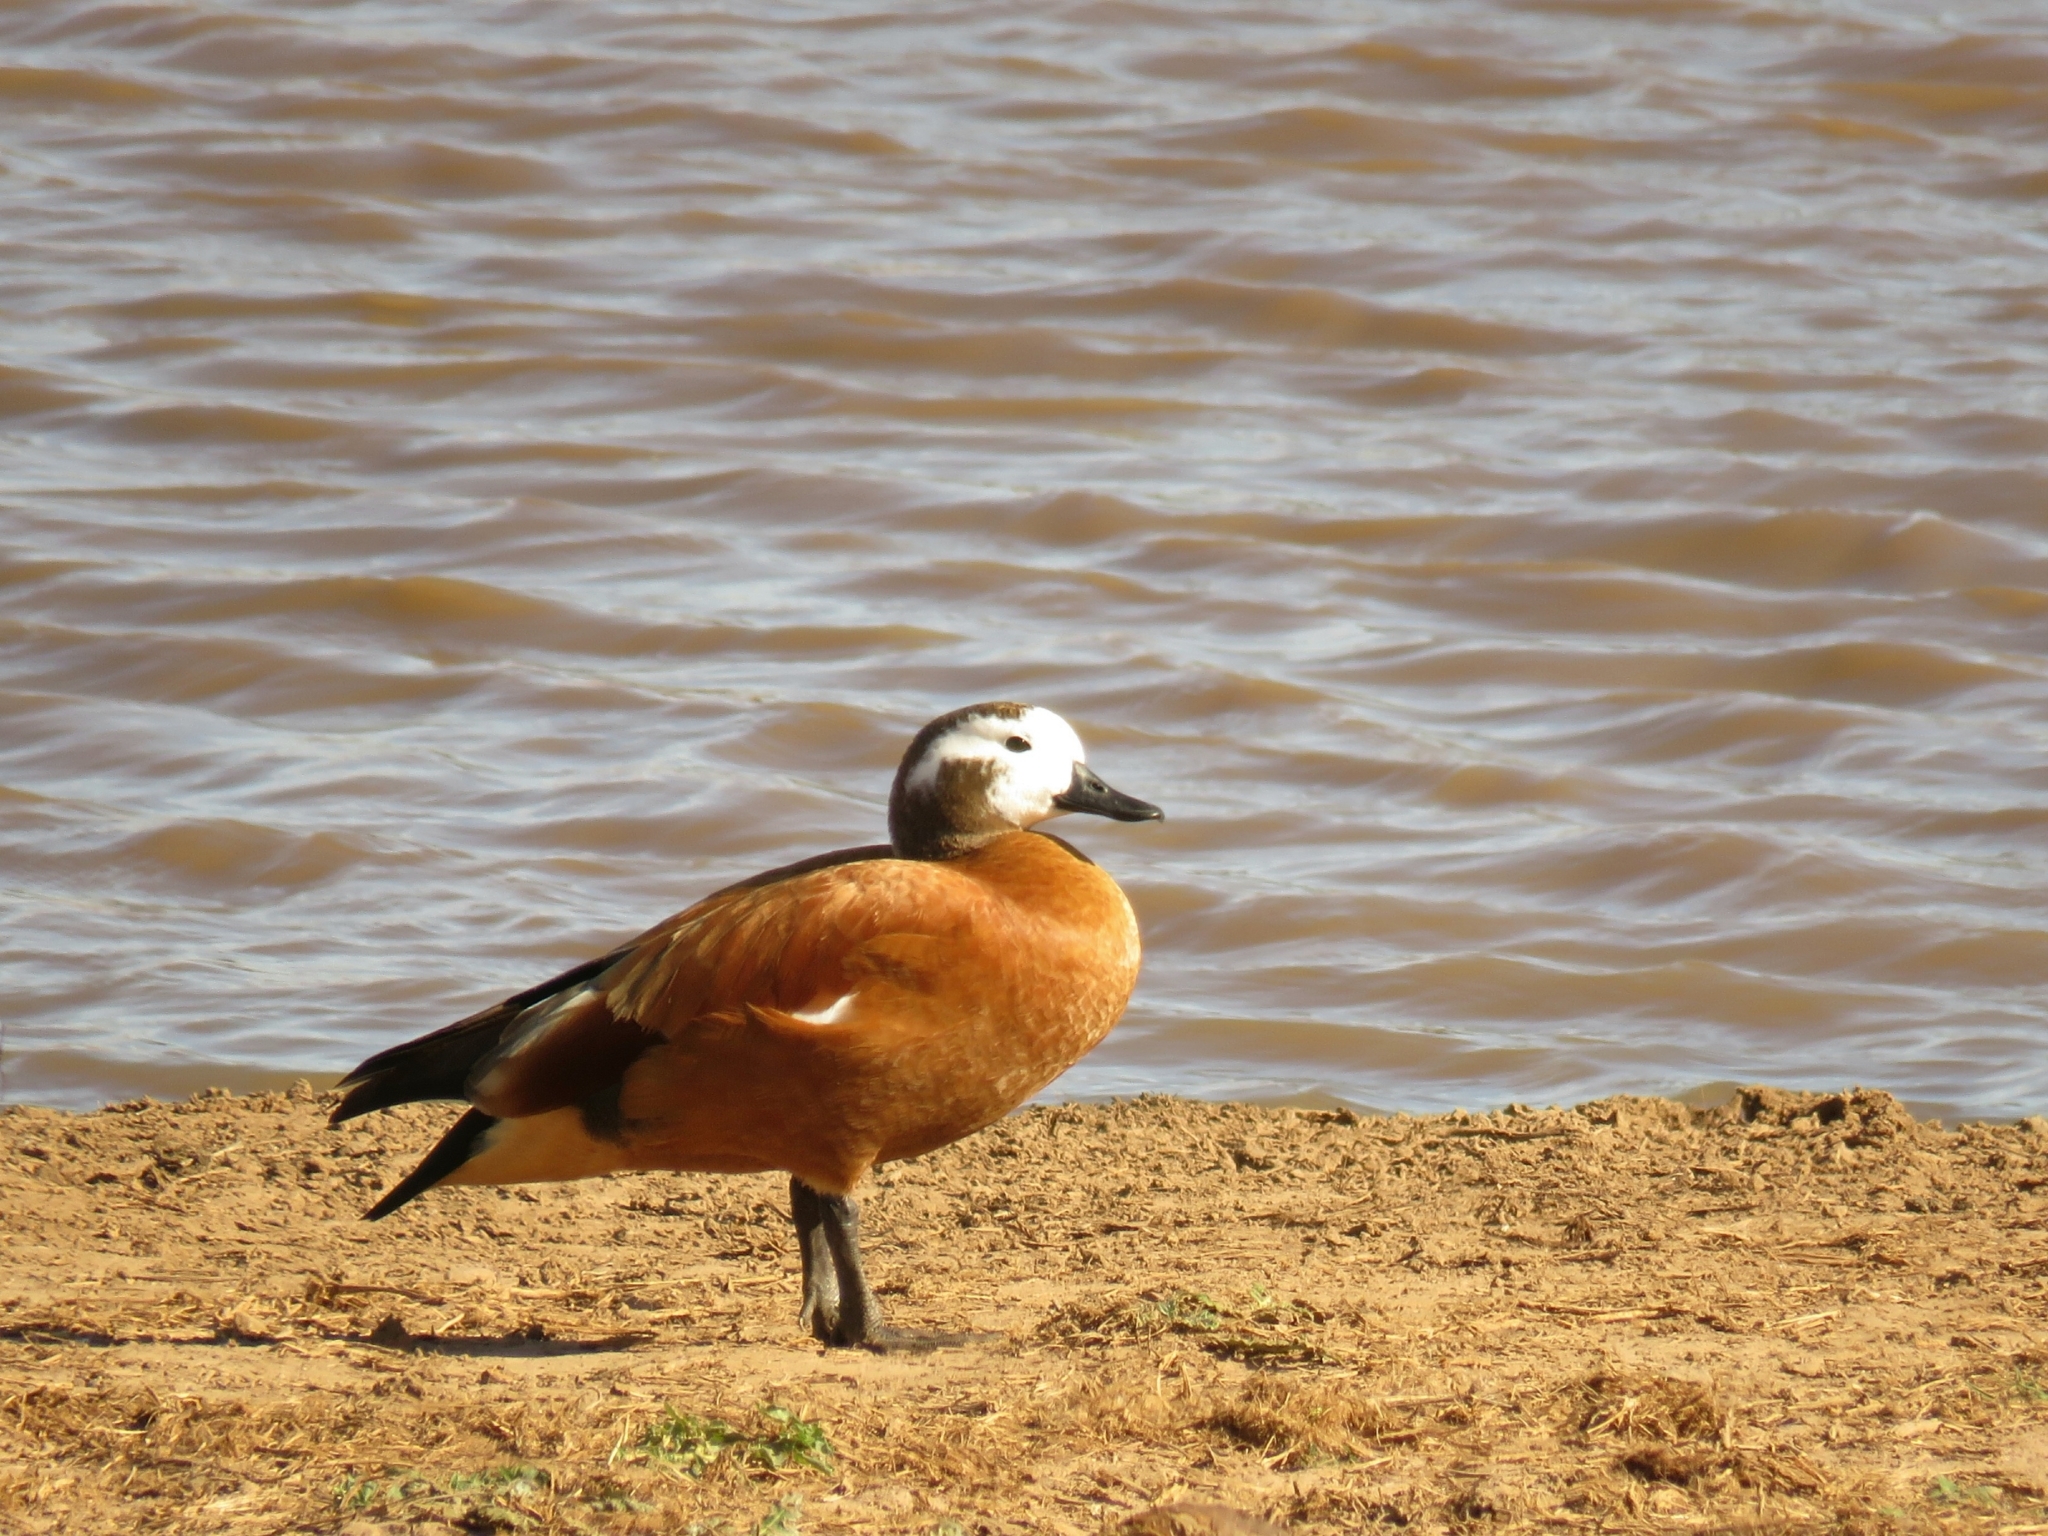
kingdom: Animalia
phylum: Chordata
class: Aves
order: Anseriformes
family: Anatidae
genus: Tadorna
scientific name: Tadorna cana
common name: South african shelduck
